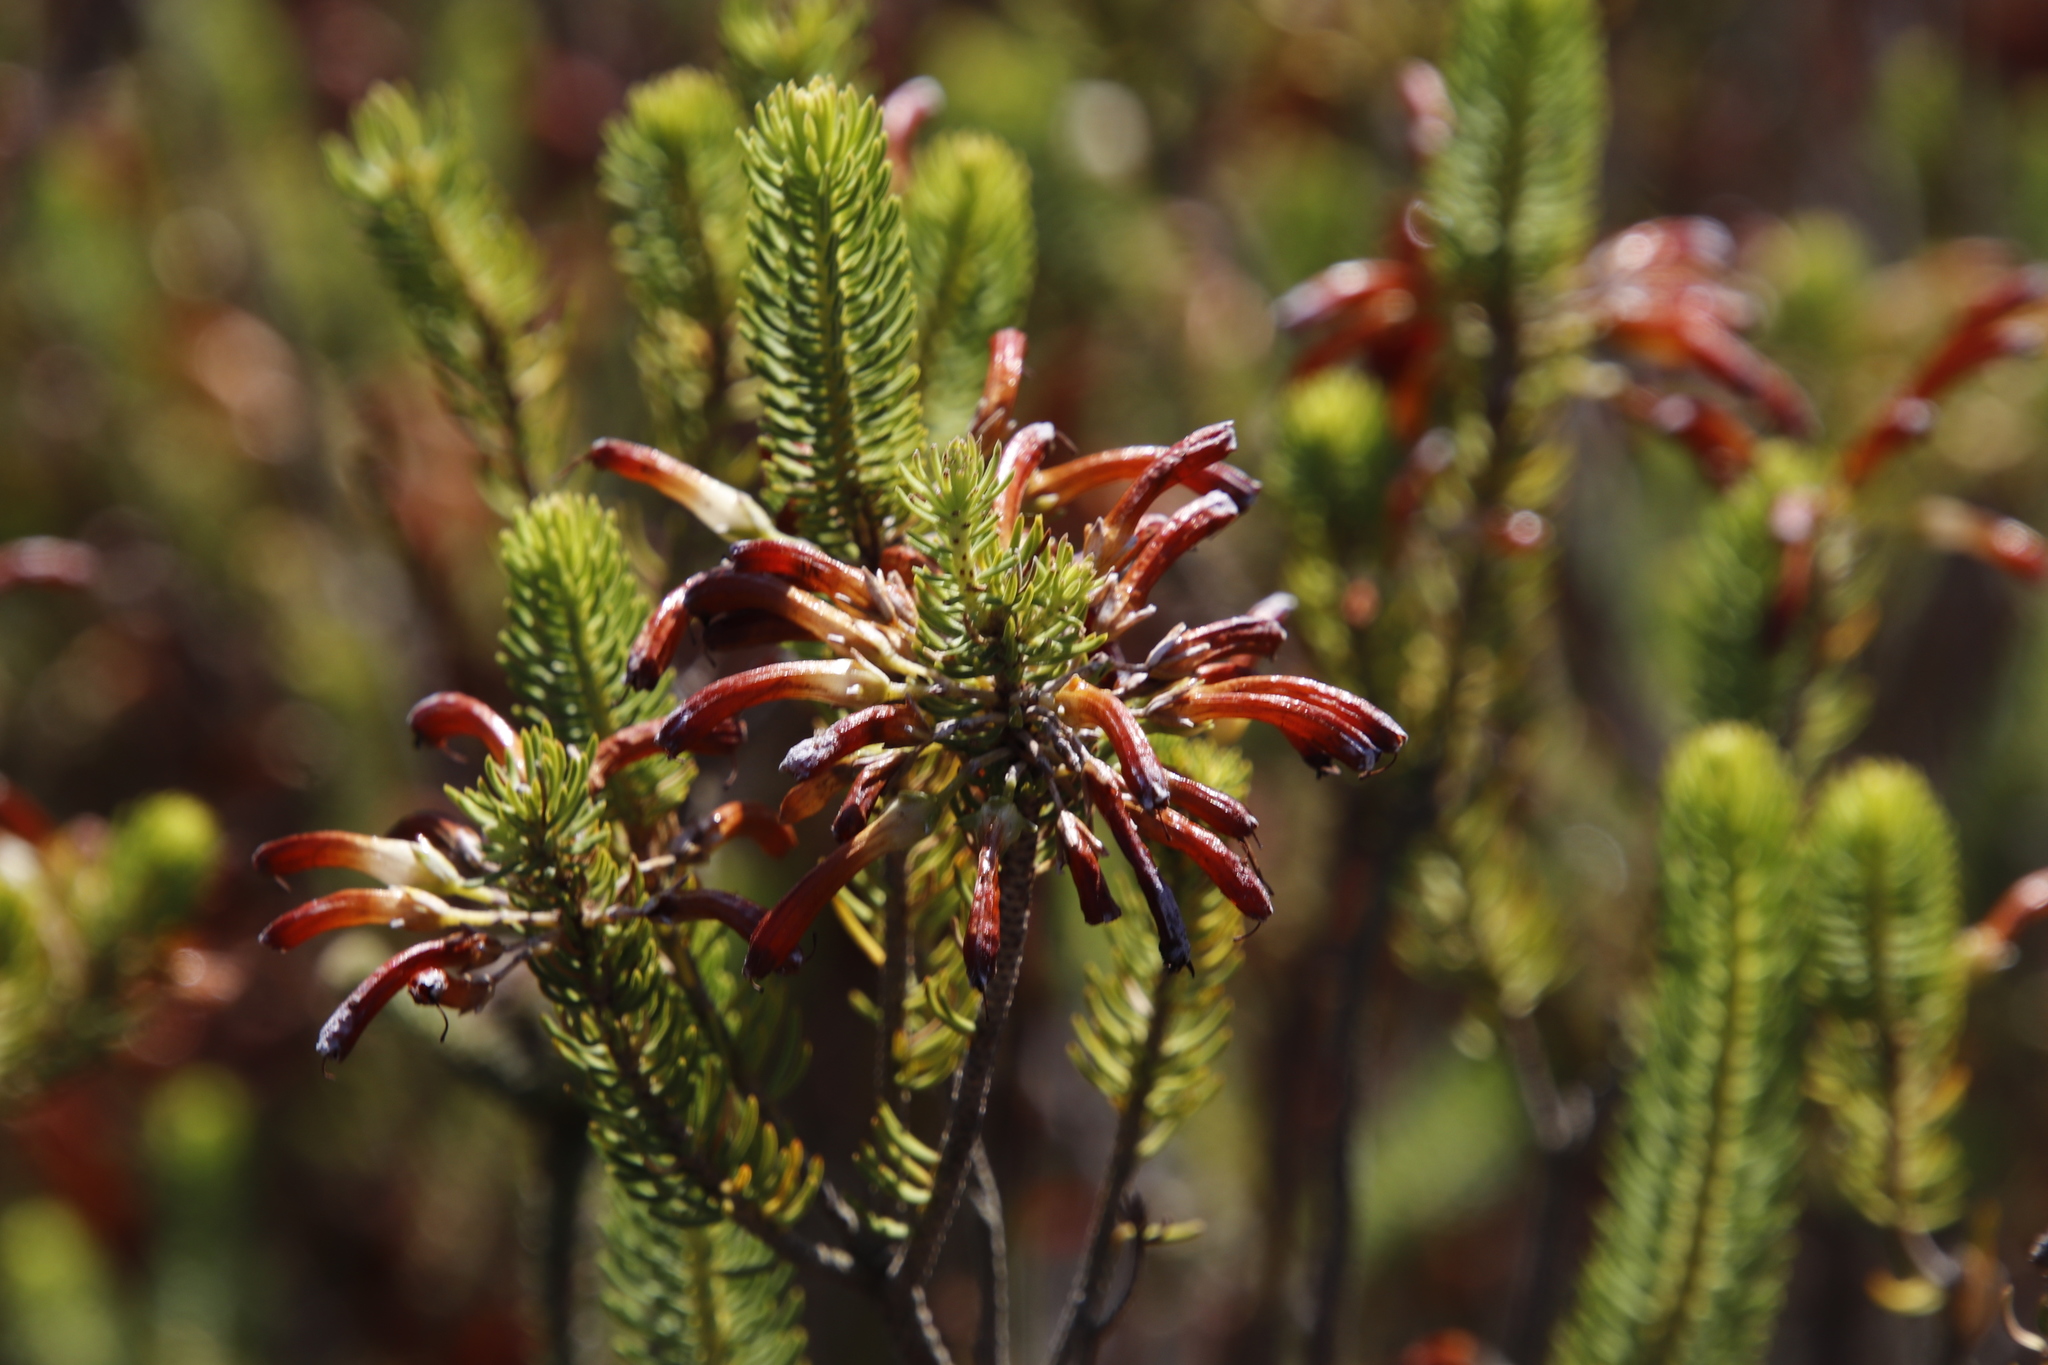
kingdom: Plantae
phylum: Tracheophyta
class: Magnoliopsida
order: Ericales
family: Ericaceae
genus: Erica
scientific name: Erica thomae
